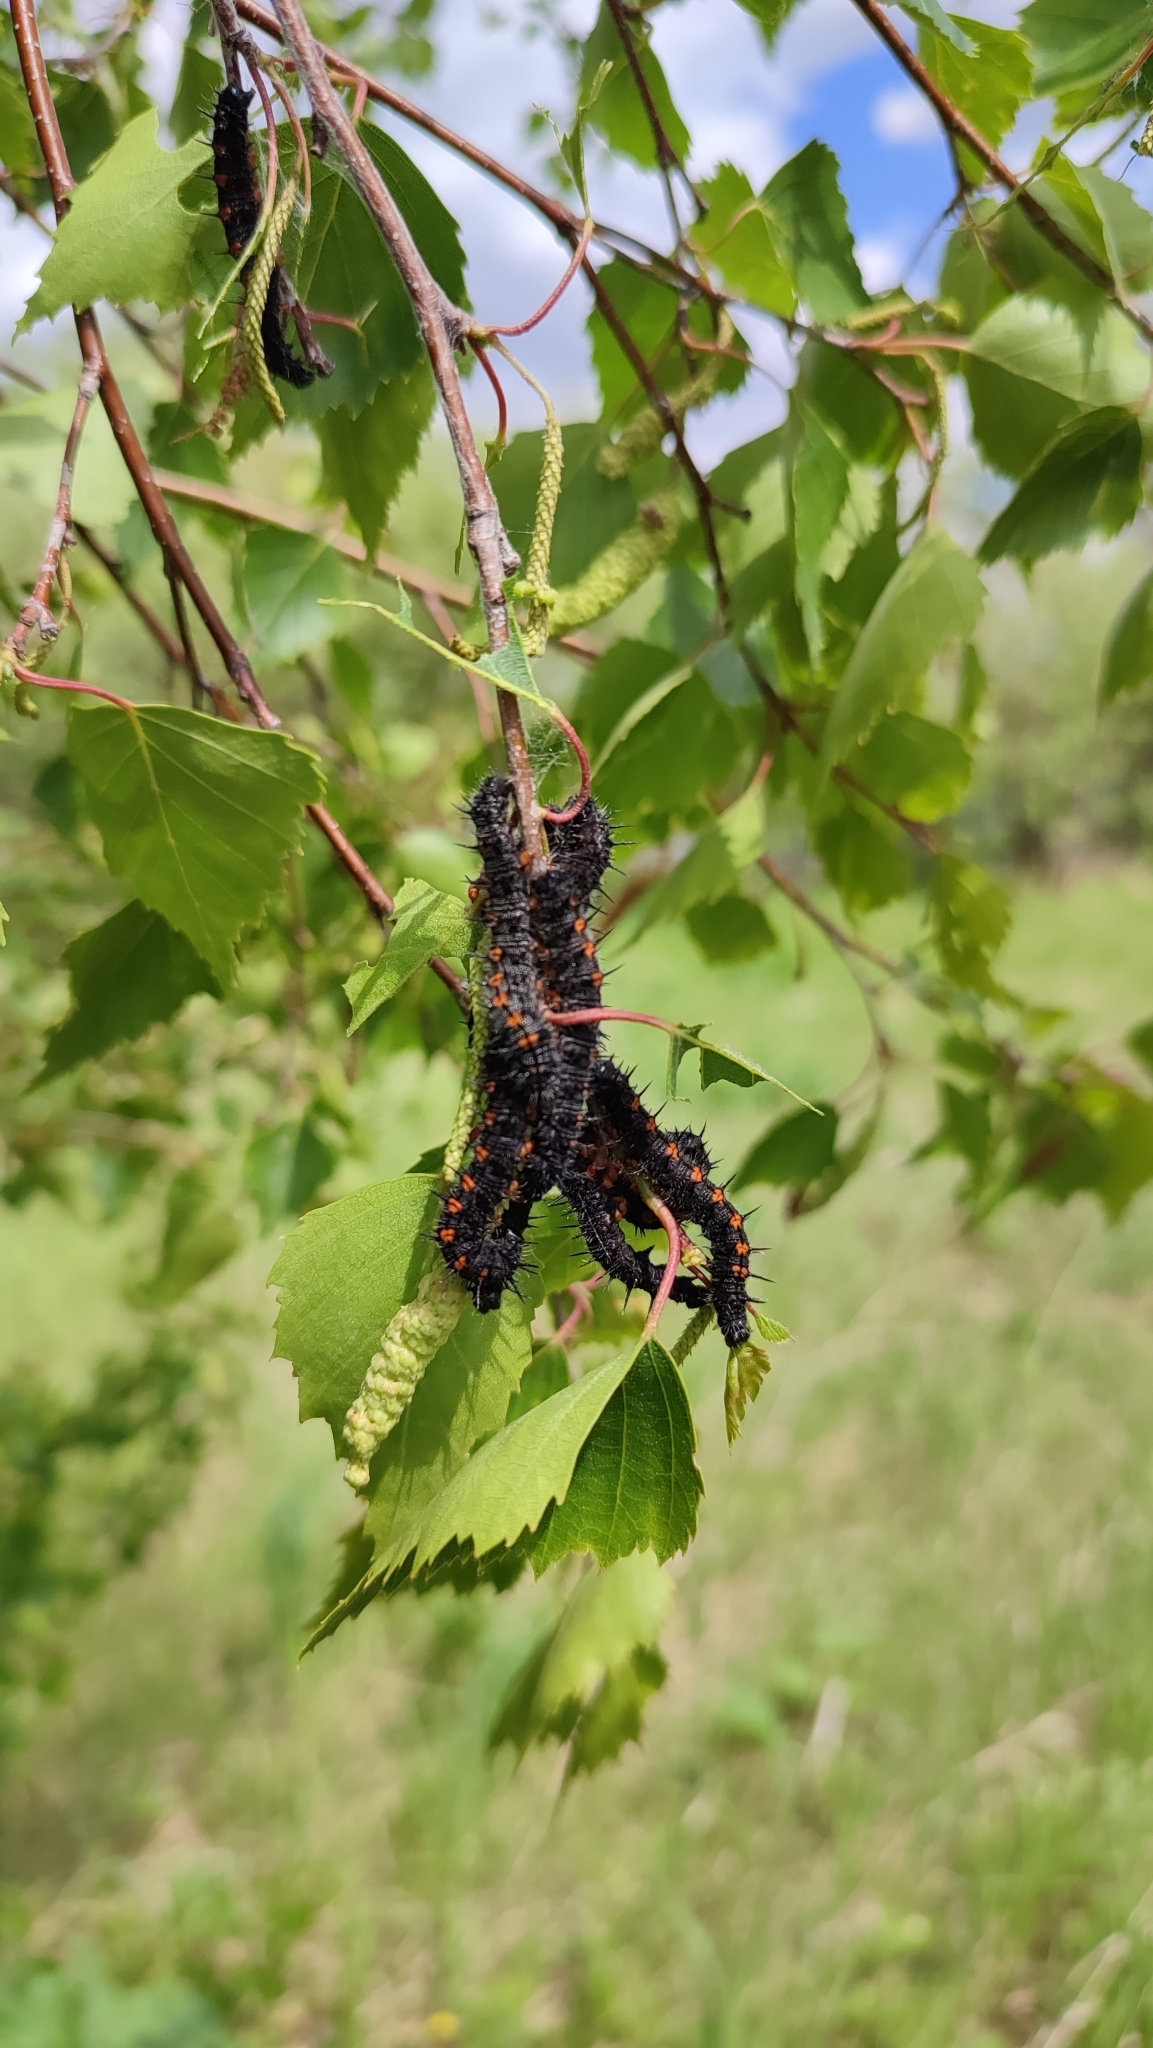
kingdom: Animalia
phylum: Arthropoda
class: Insecta
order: Lepidoptera
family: Nymphalidae
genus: Nymphalis
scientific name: Nymphalis antiopa
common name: Camberwell beauty
